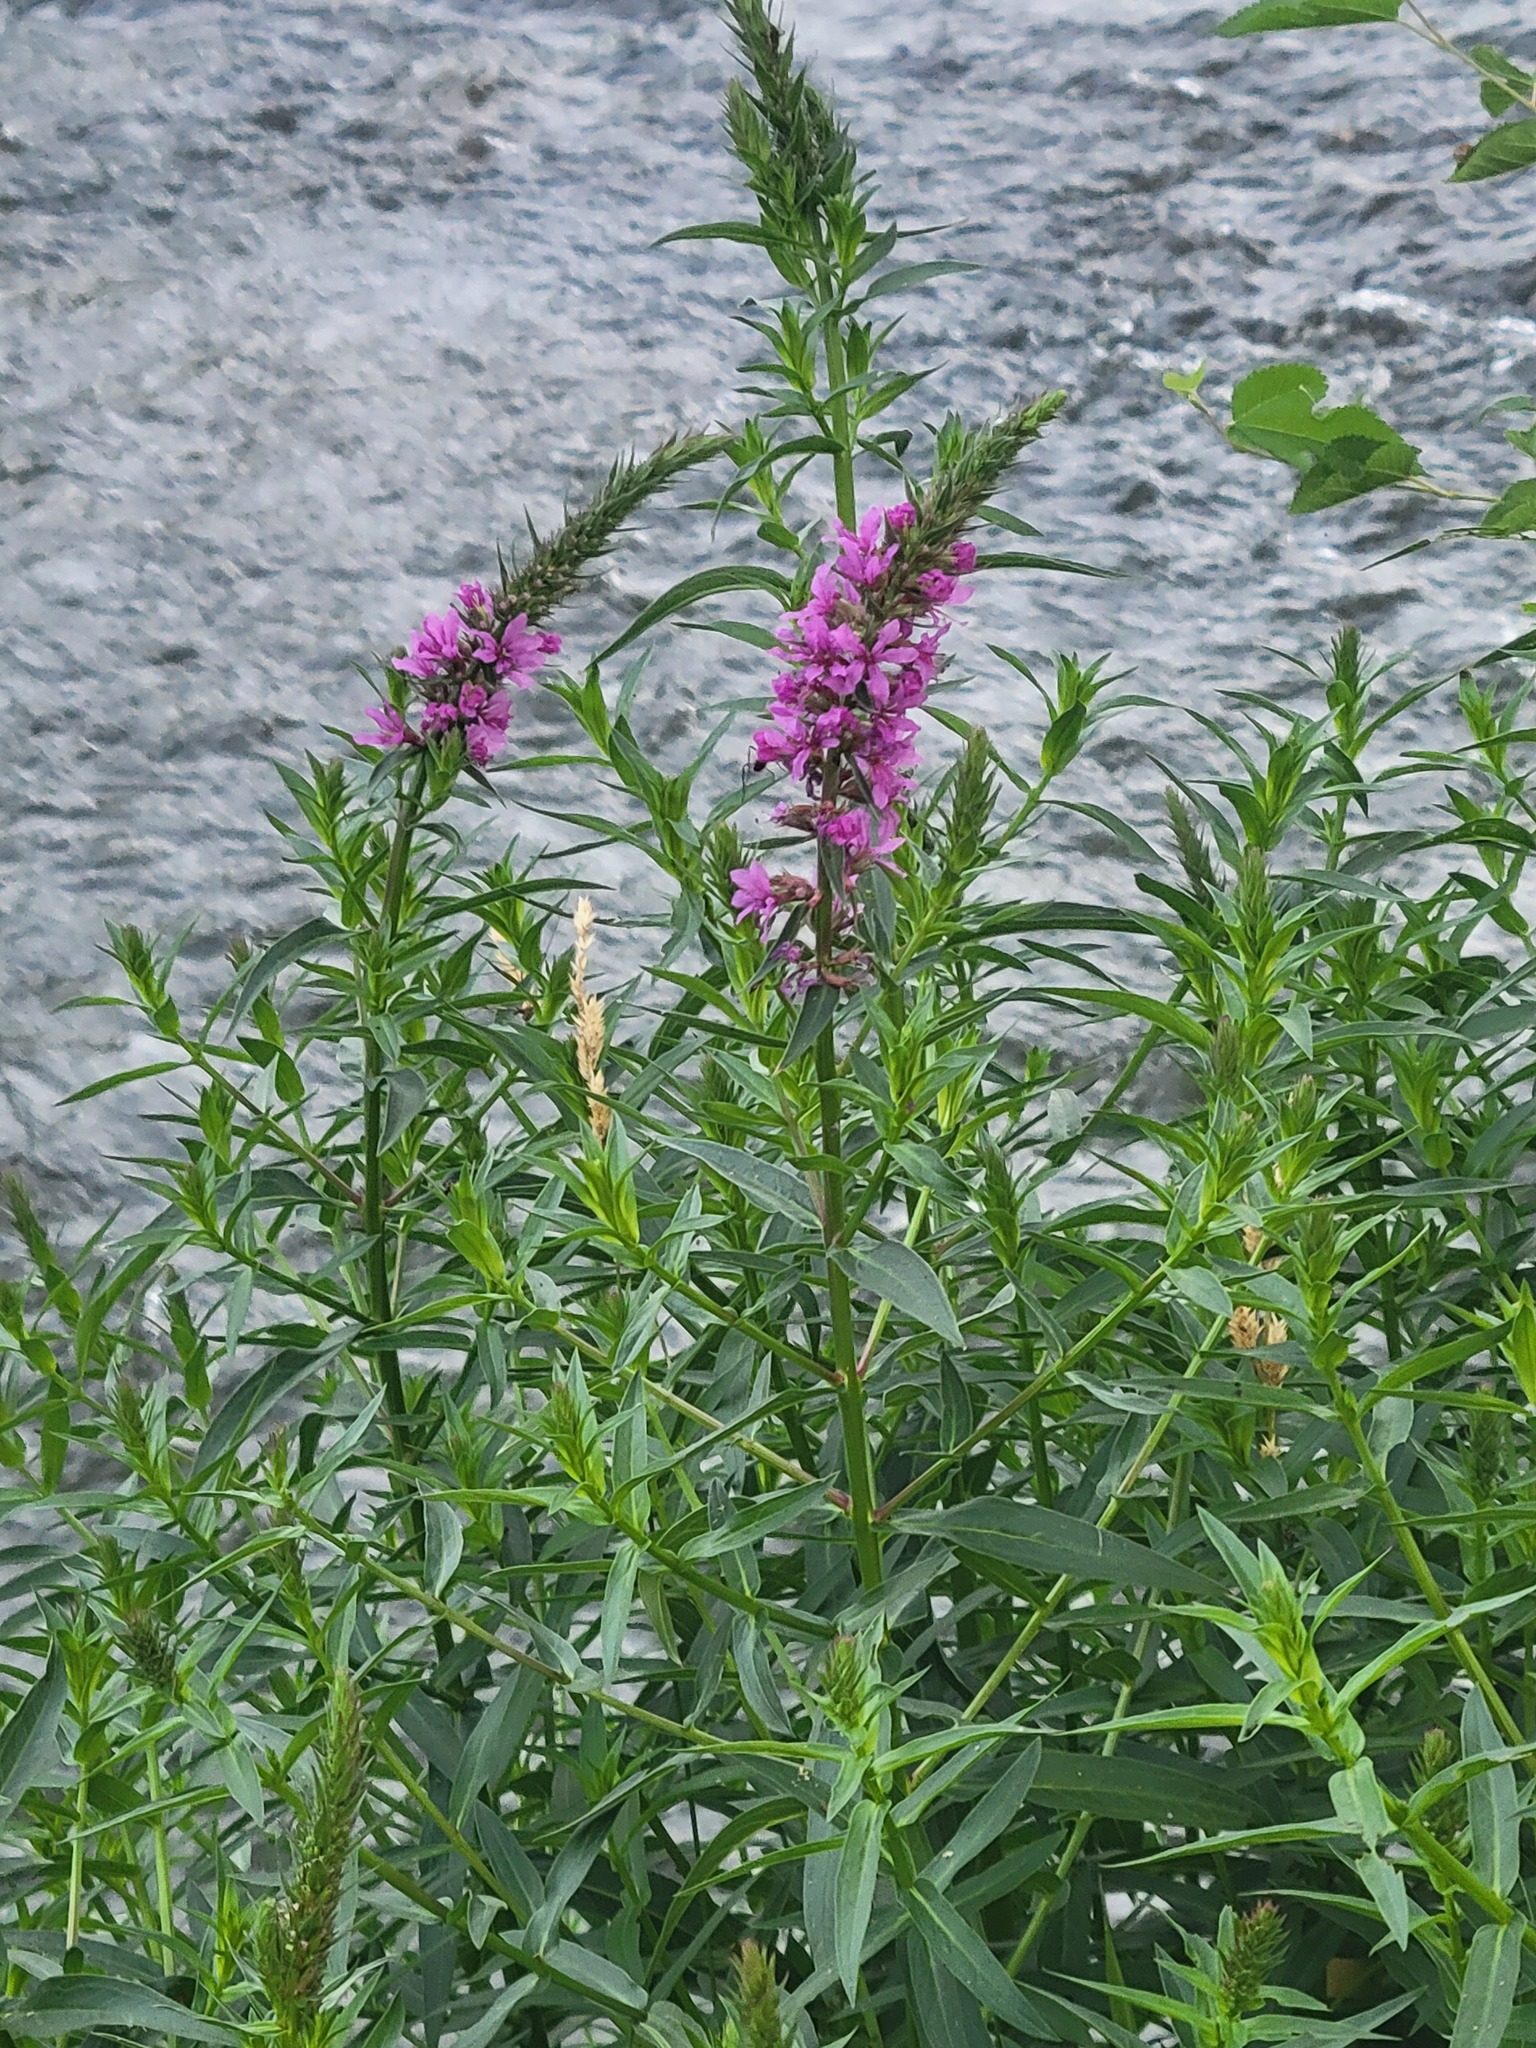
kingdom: Plantae
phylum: Tracheophyta
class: Magnoliopsida
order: Myrtales
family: Lythraceae
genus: Lythrum
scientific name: Lythrum salicaria
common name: Purple loosestrife
